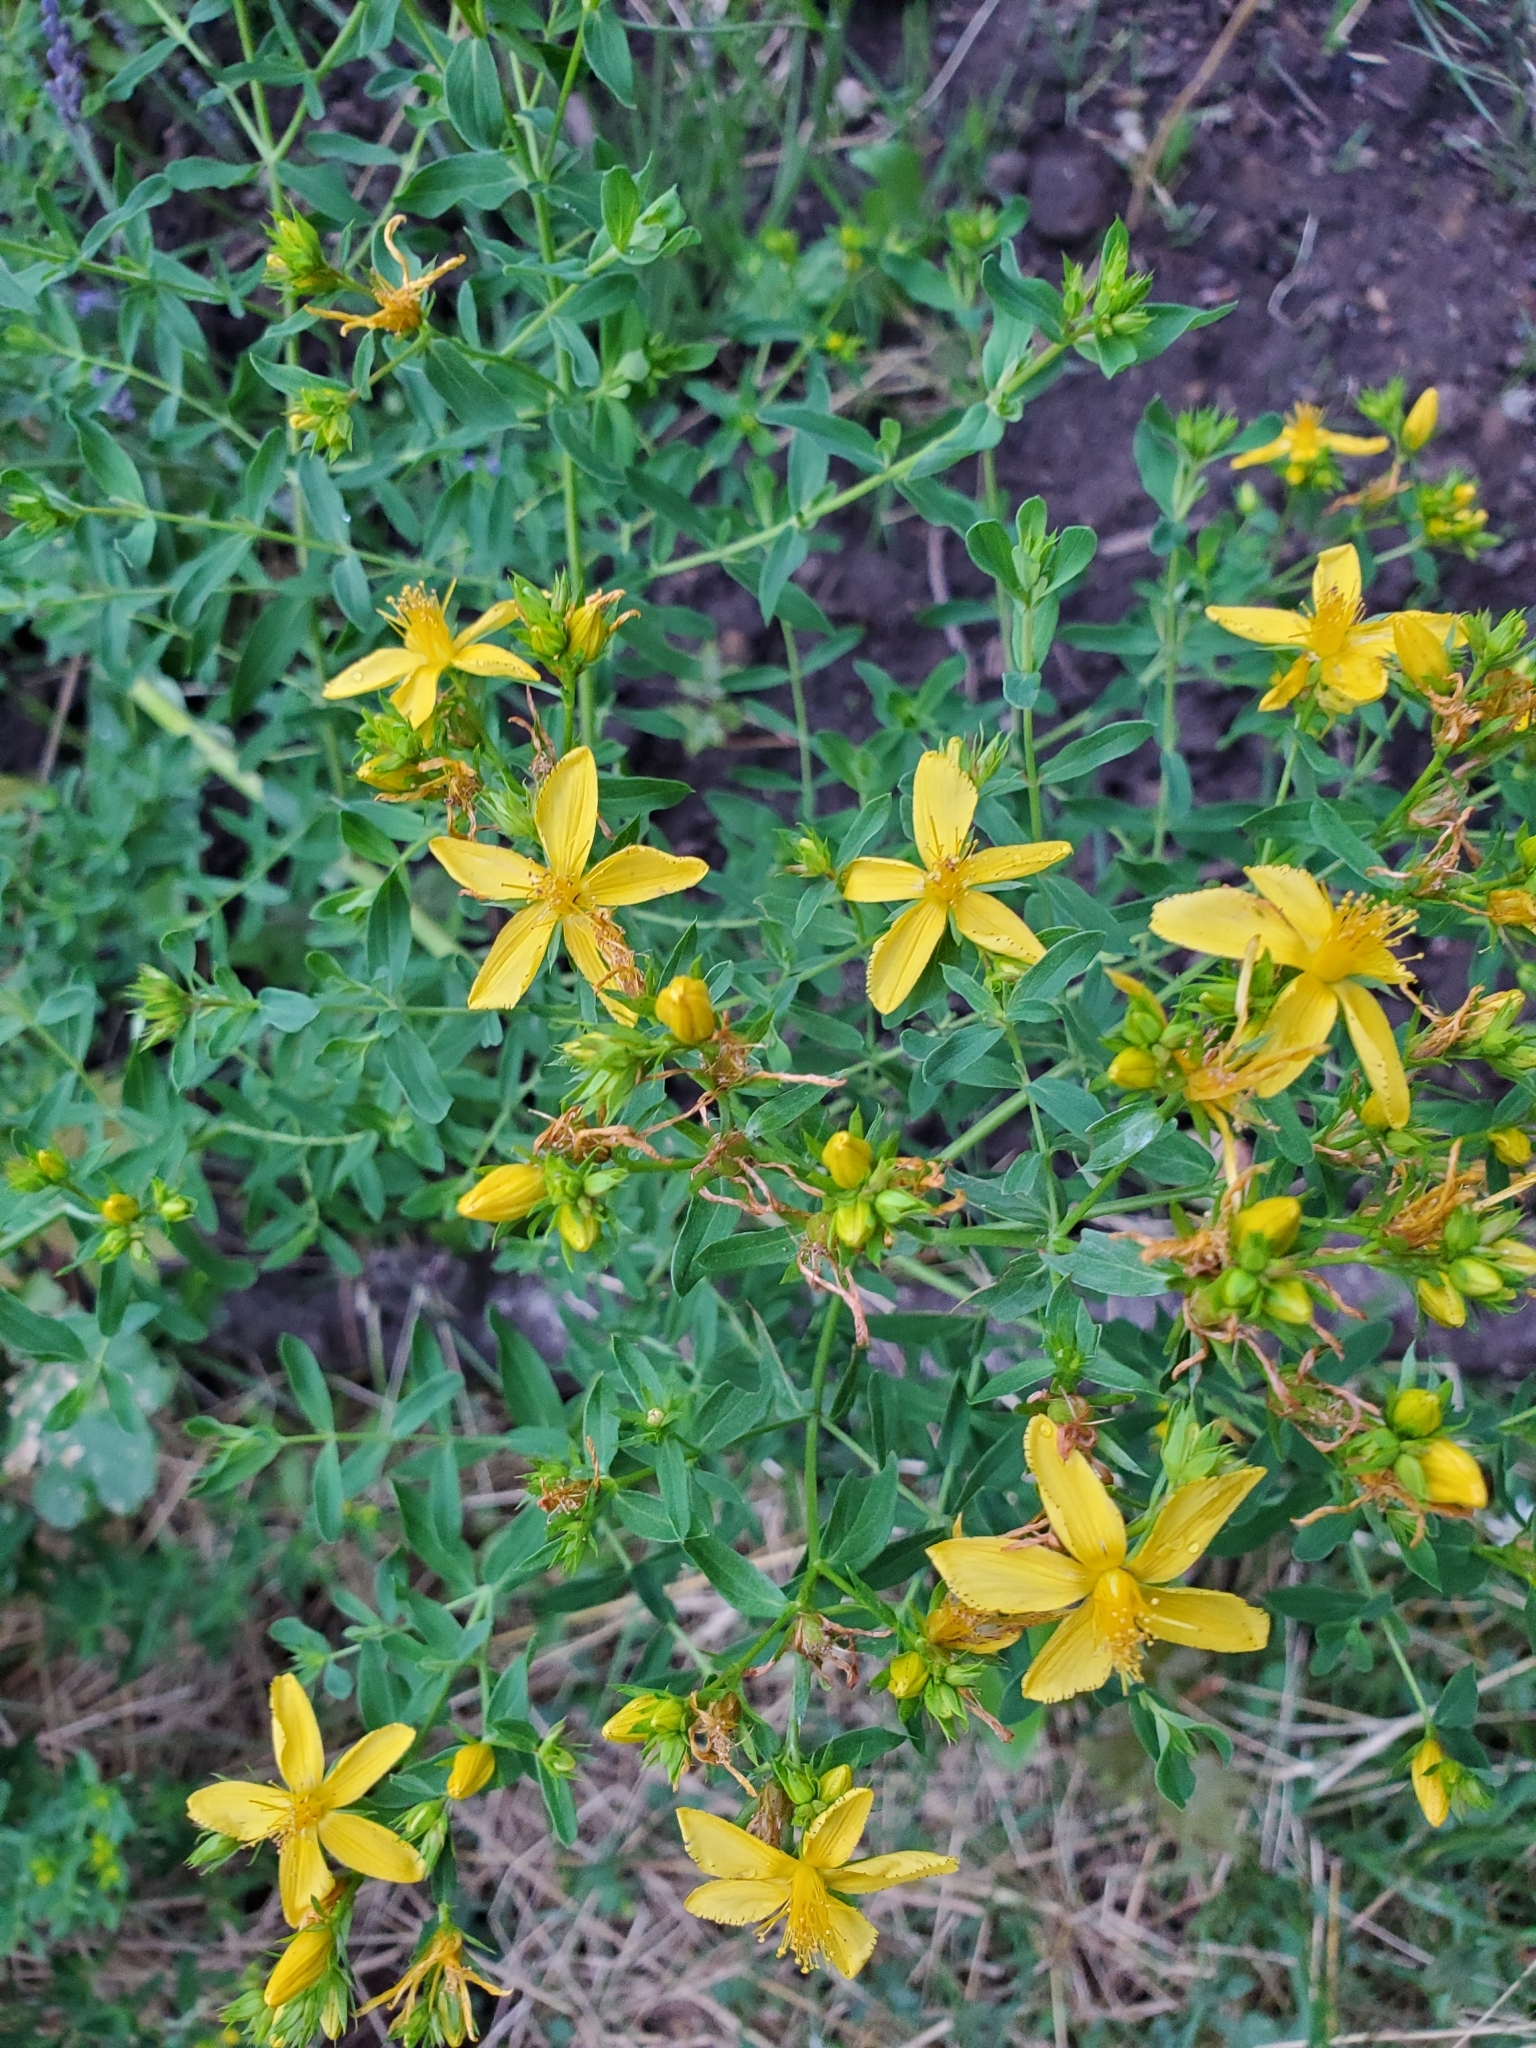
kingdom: Plantae
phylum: Tracheophyta
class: Magnoliopsida
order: Malpighiales
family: Hypericaceae
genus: Hypericum
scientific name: Hypericum perforatum
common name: Common st. johnswort
